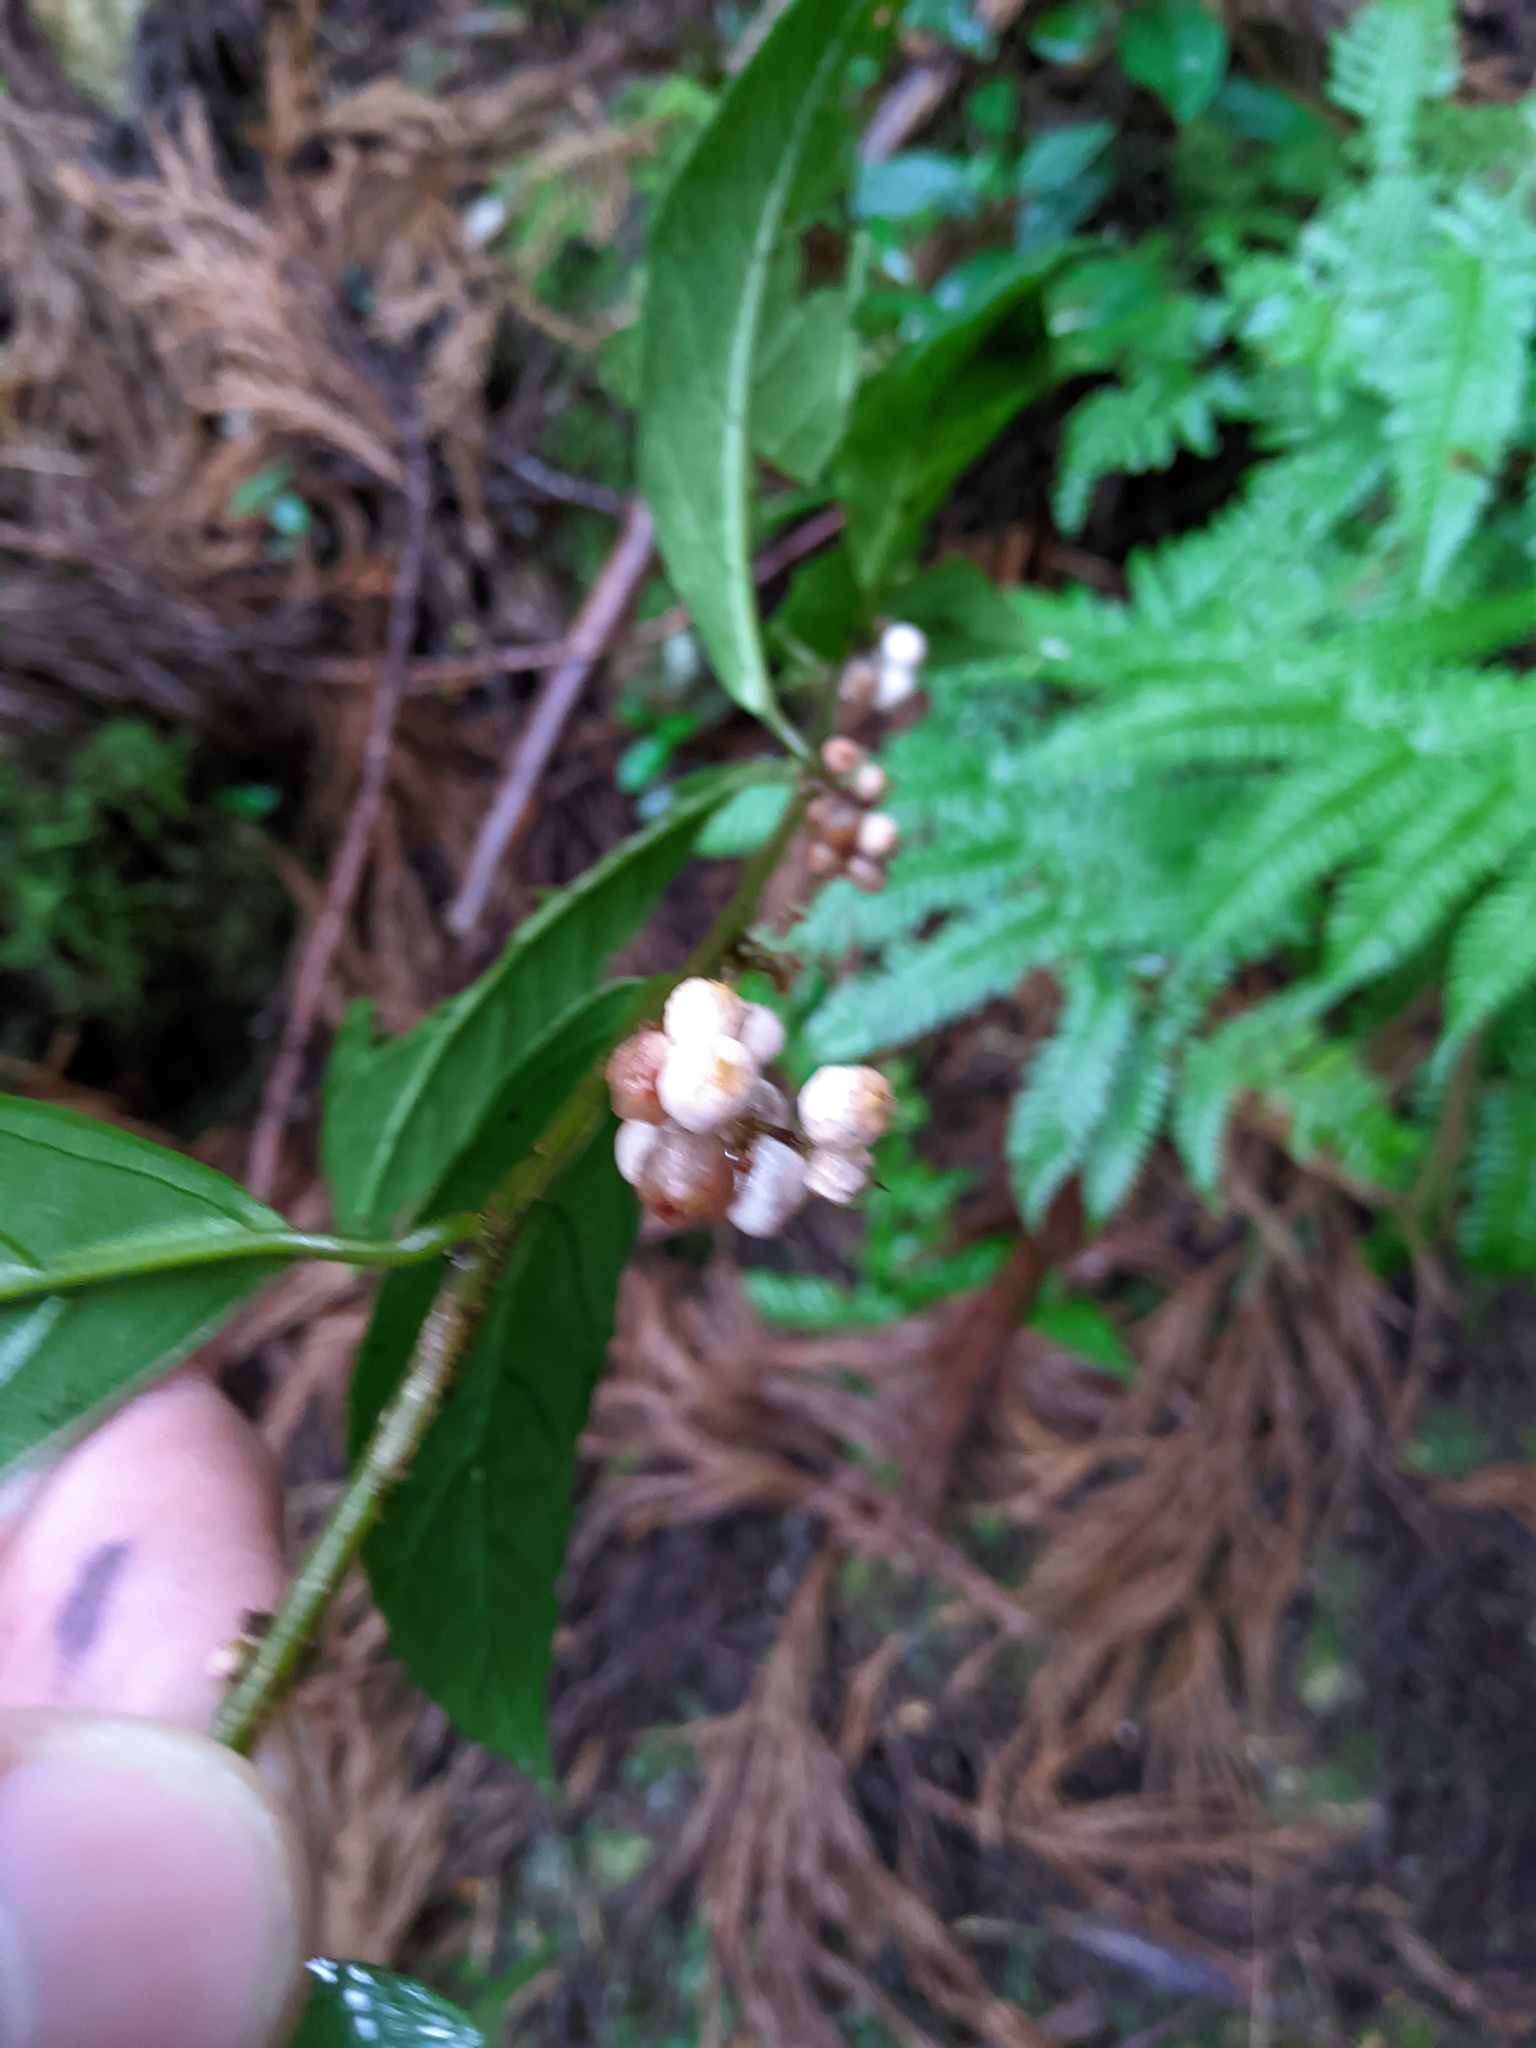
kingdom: Plantae
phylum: Tracheophyta
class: Magnoliopsida
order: Ericales
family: Primulaceae
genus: Maesa
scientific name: Maesa japonica
